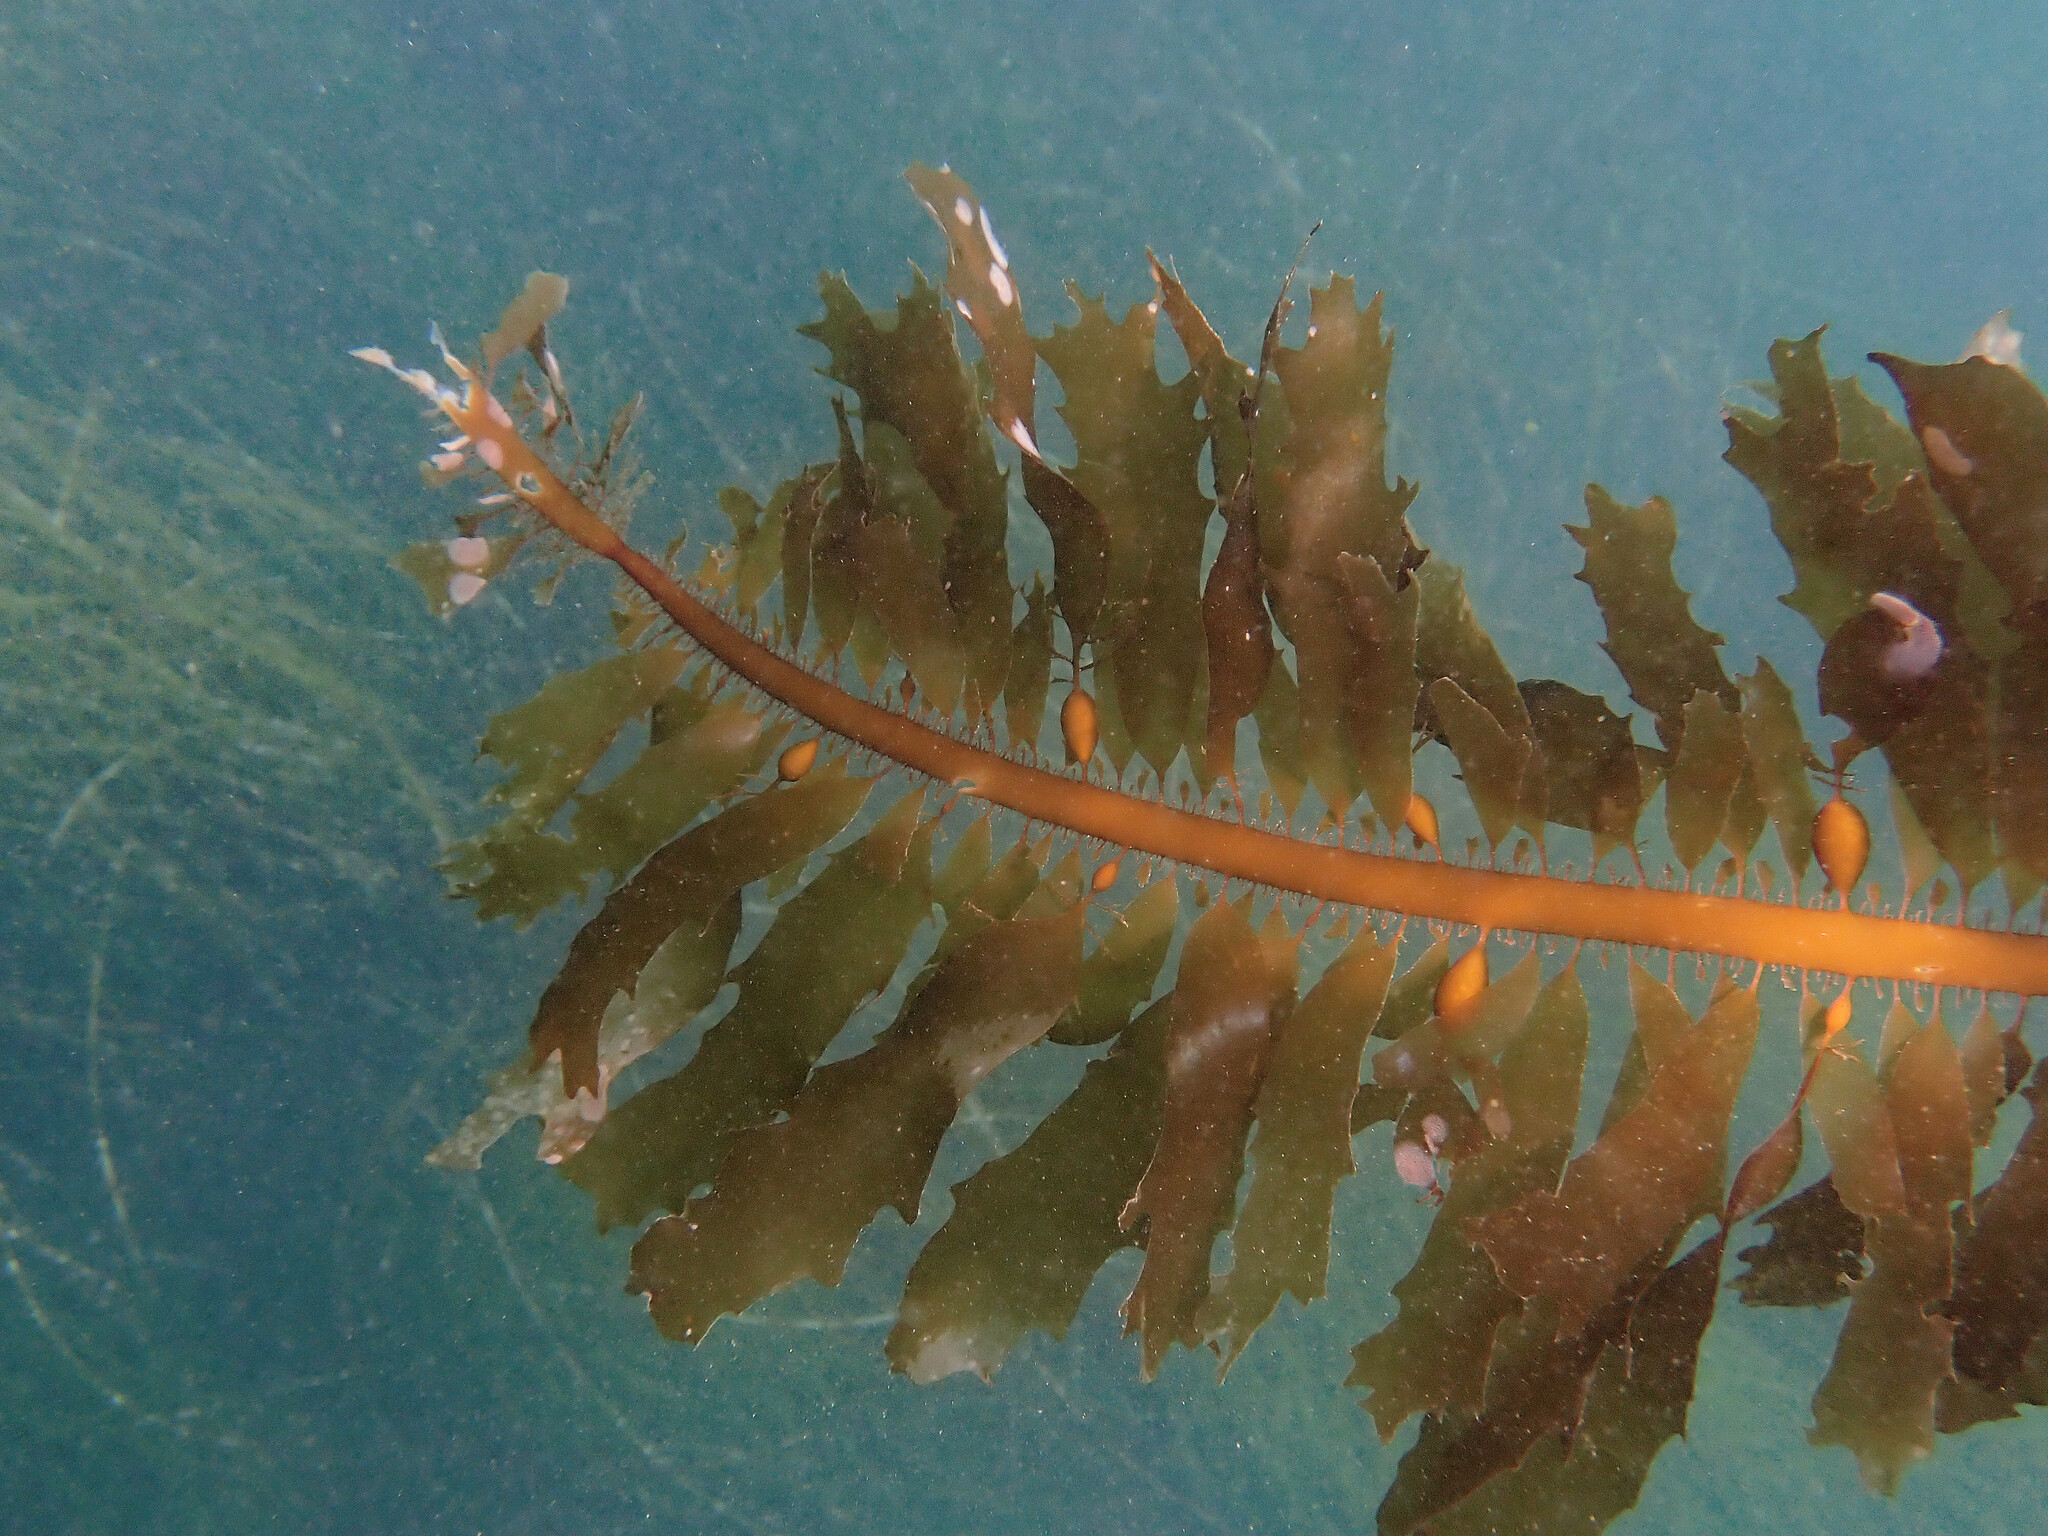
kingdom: Chromista
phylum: Ochrophyta
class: Phaeophyceae
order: Laminariales
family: Lessoniaceae
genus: Egregia
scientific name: Egregia menziesii
